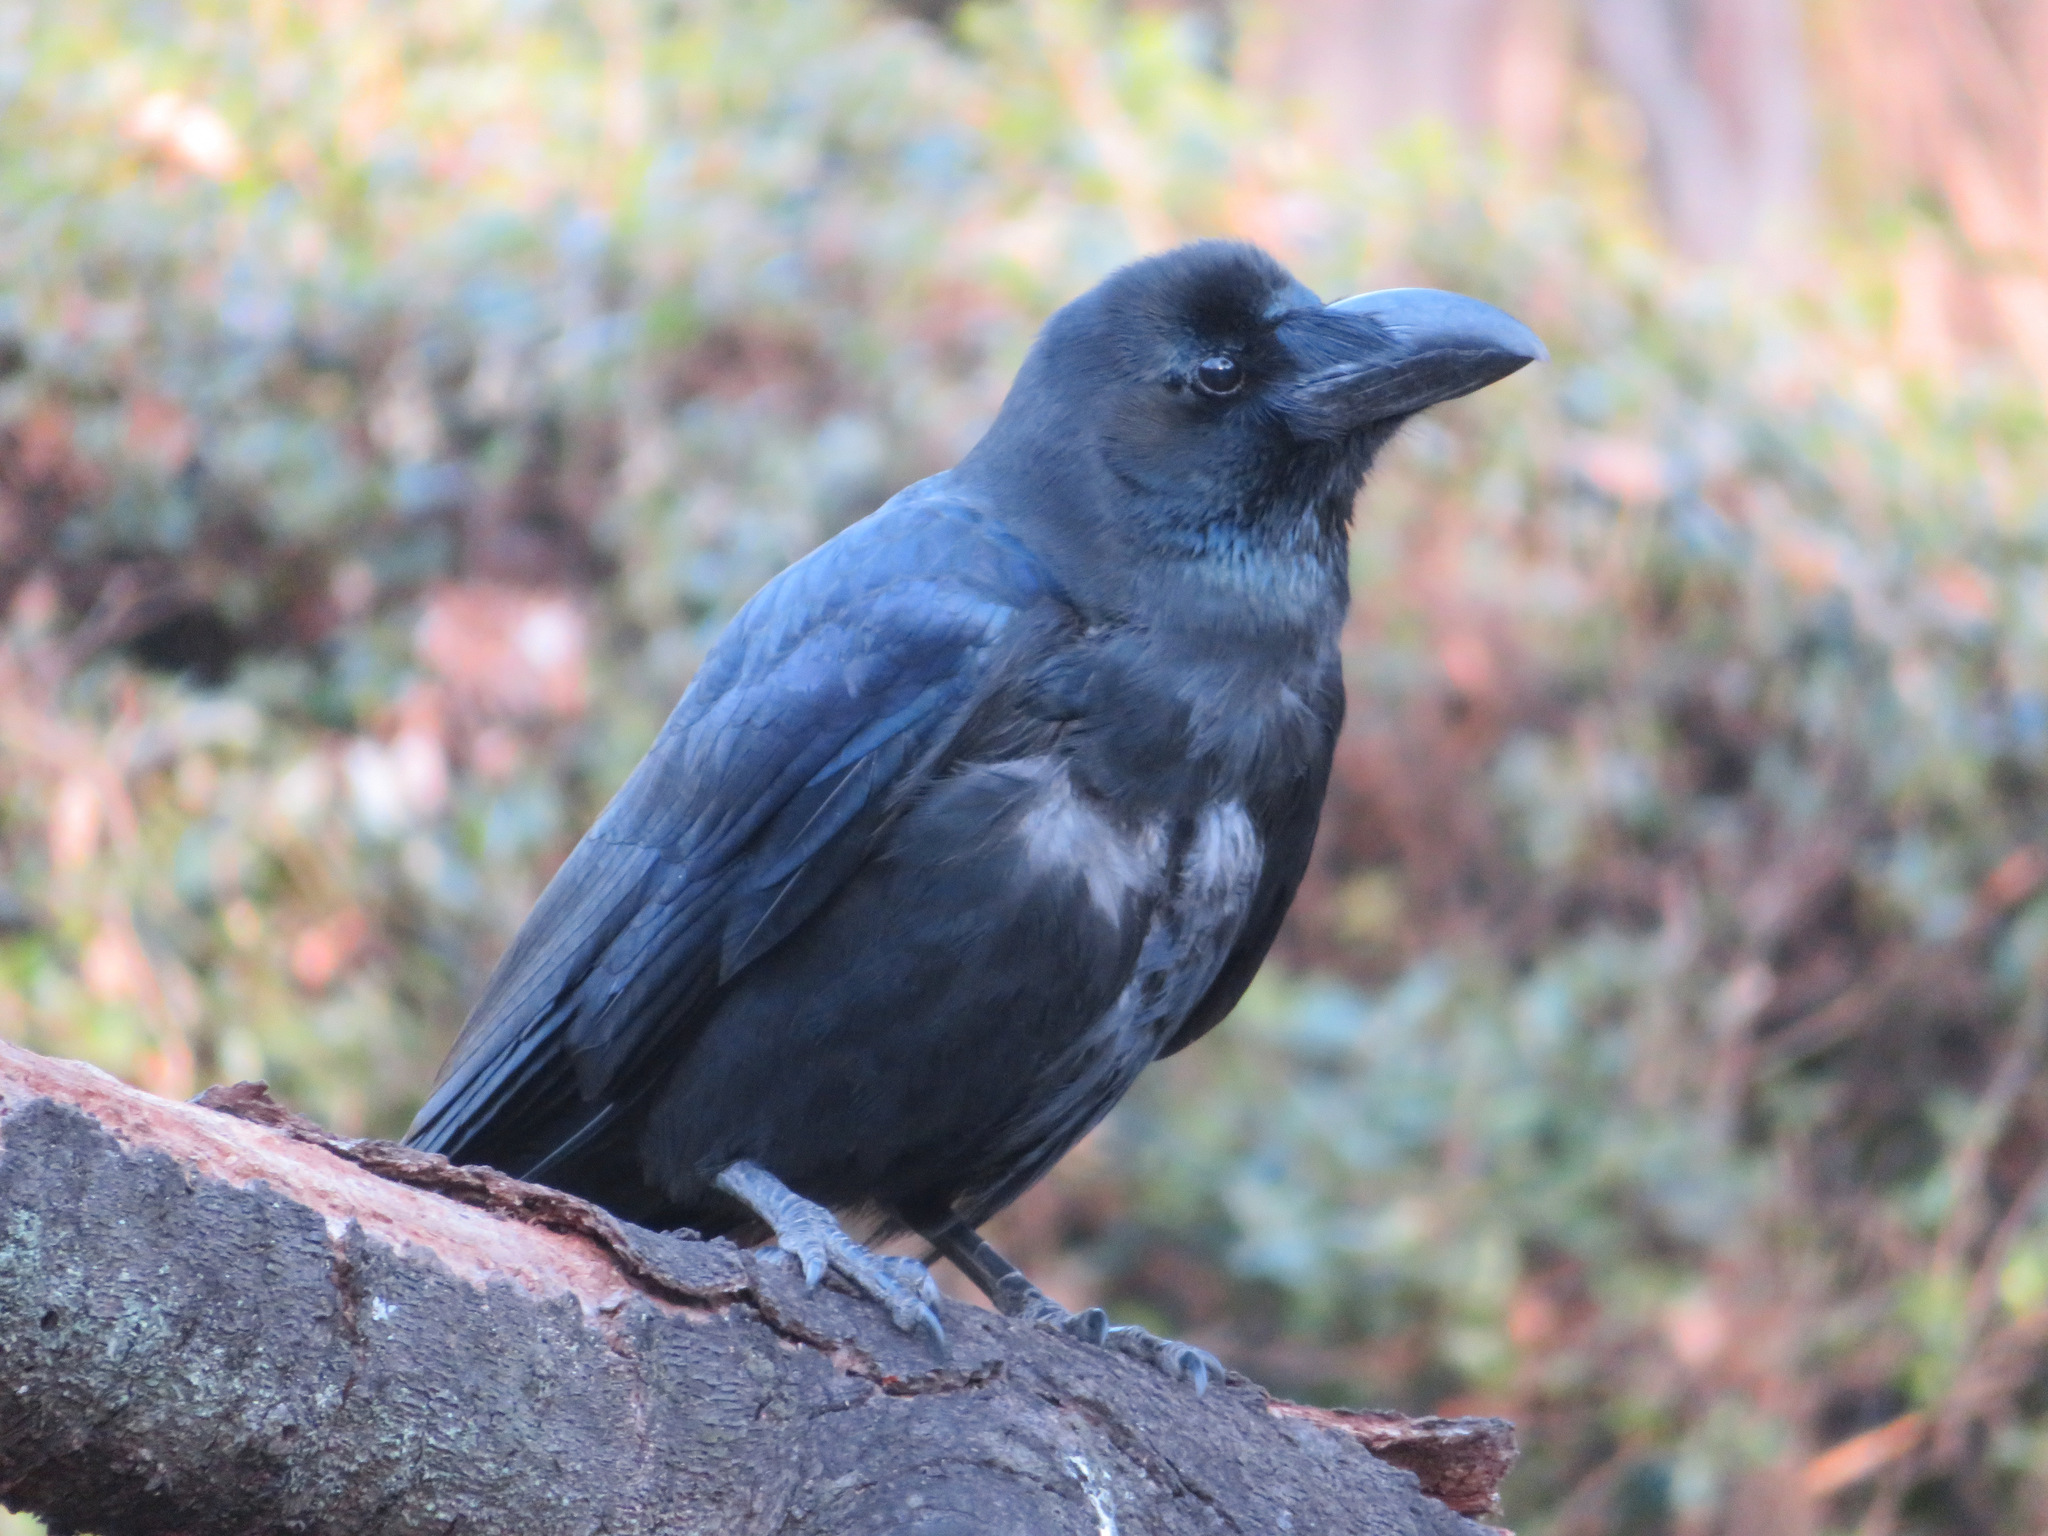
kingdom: Animalia
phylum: Chordata
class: Aves
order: Passeriformes
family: Corvidae
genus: Corvus
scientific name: Corvus macrorhynchos
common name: Large-billed crow
